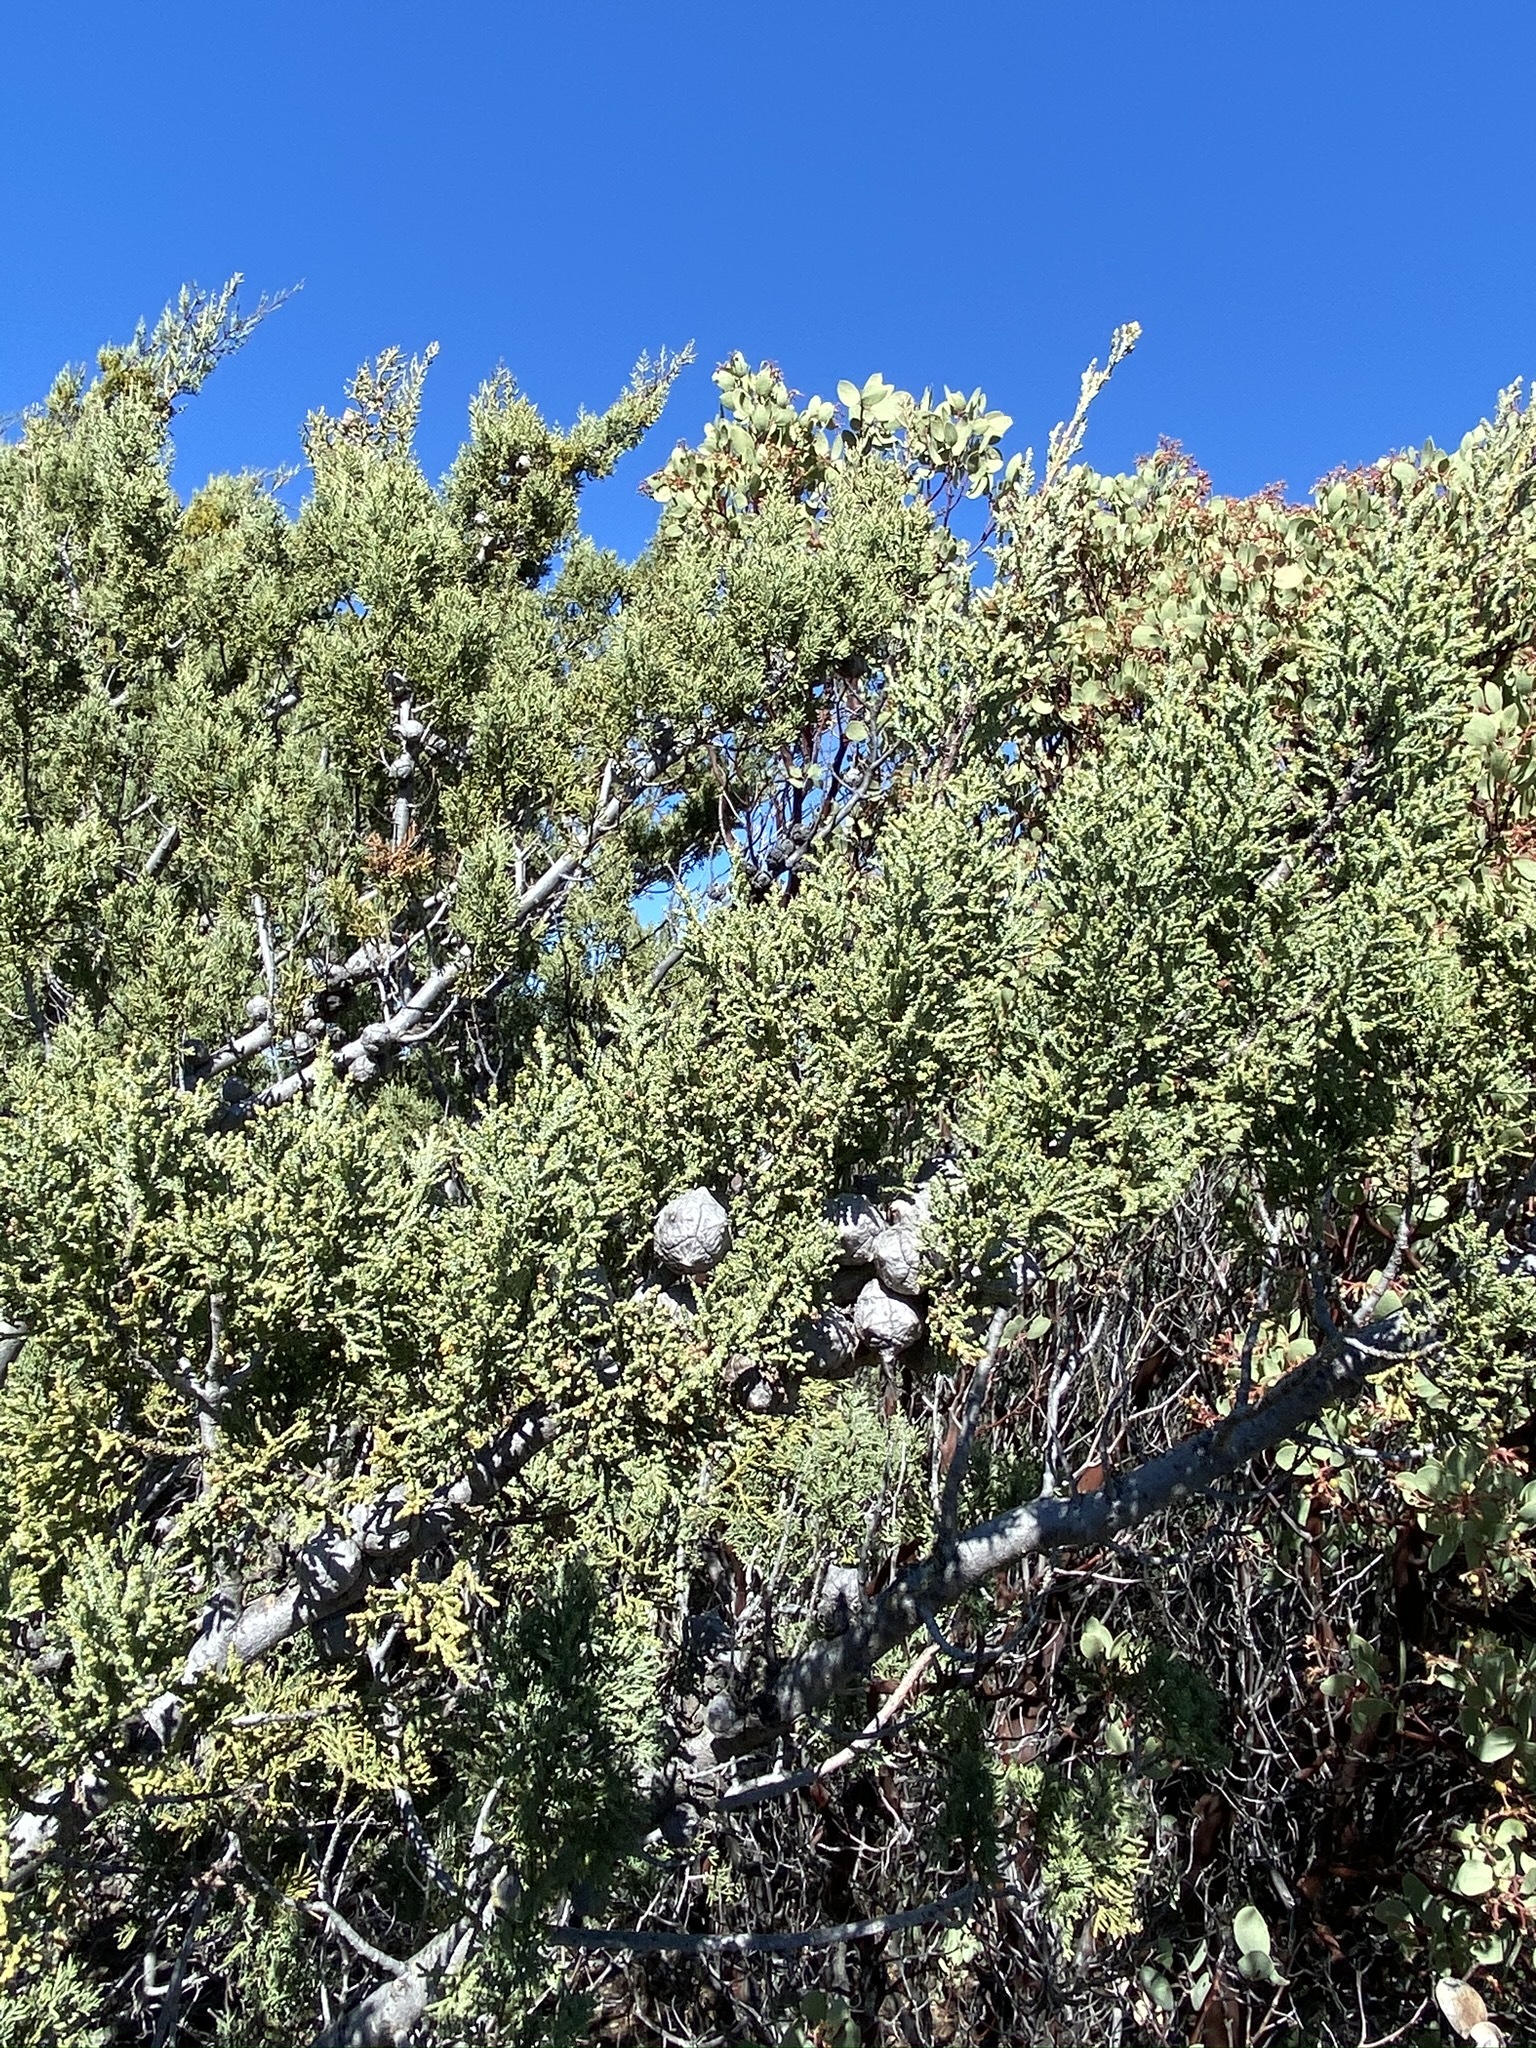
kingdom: Plantae
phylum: Tracheophyta
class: Pinopsida
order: Pinales
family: Cupressaceae
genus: Cupressus
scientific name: Cupressus macnabiana bis
